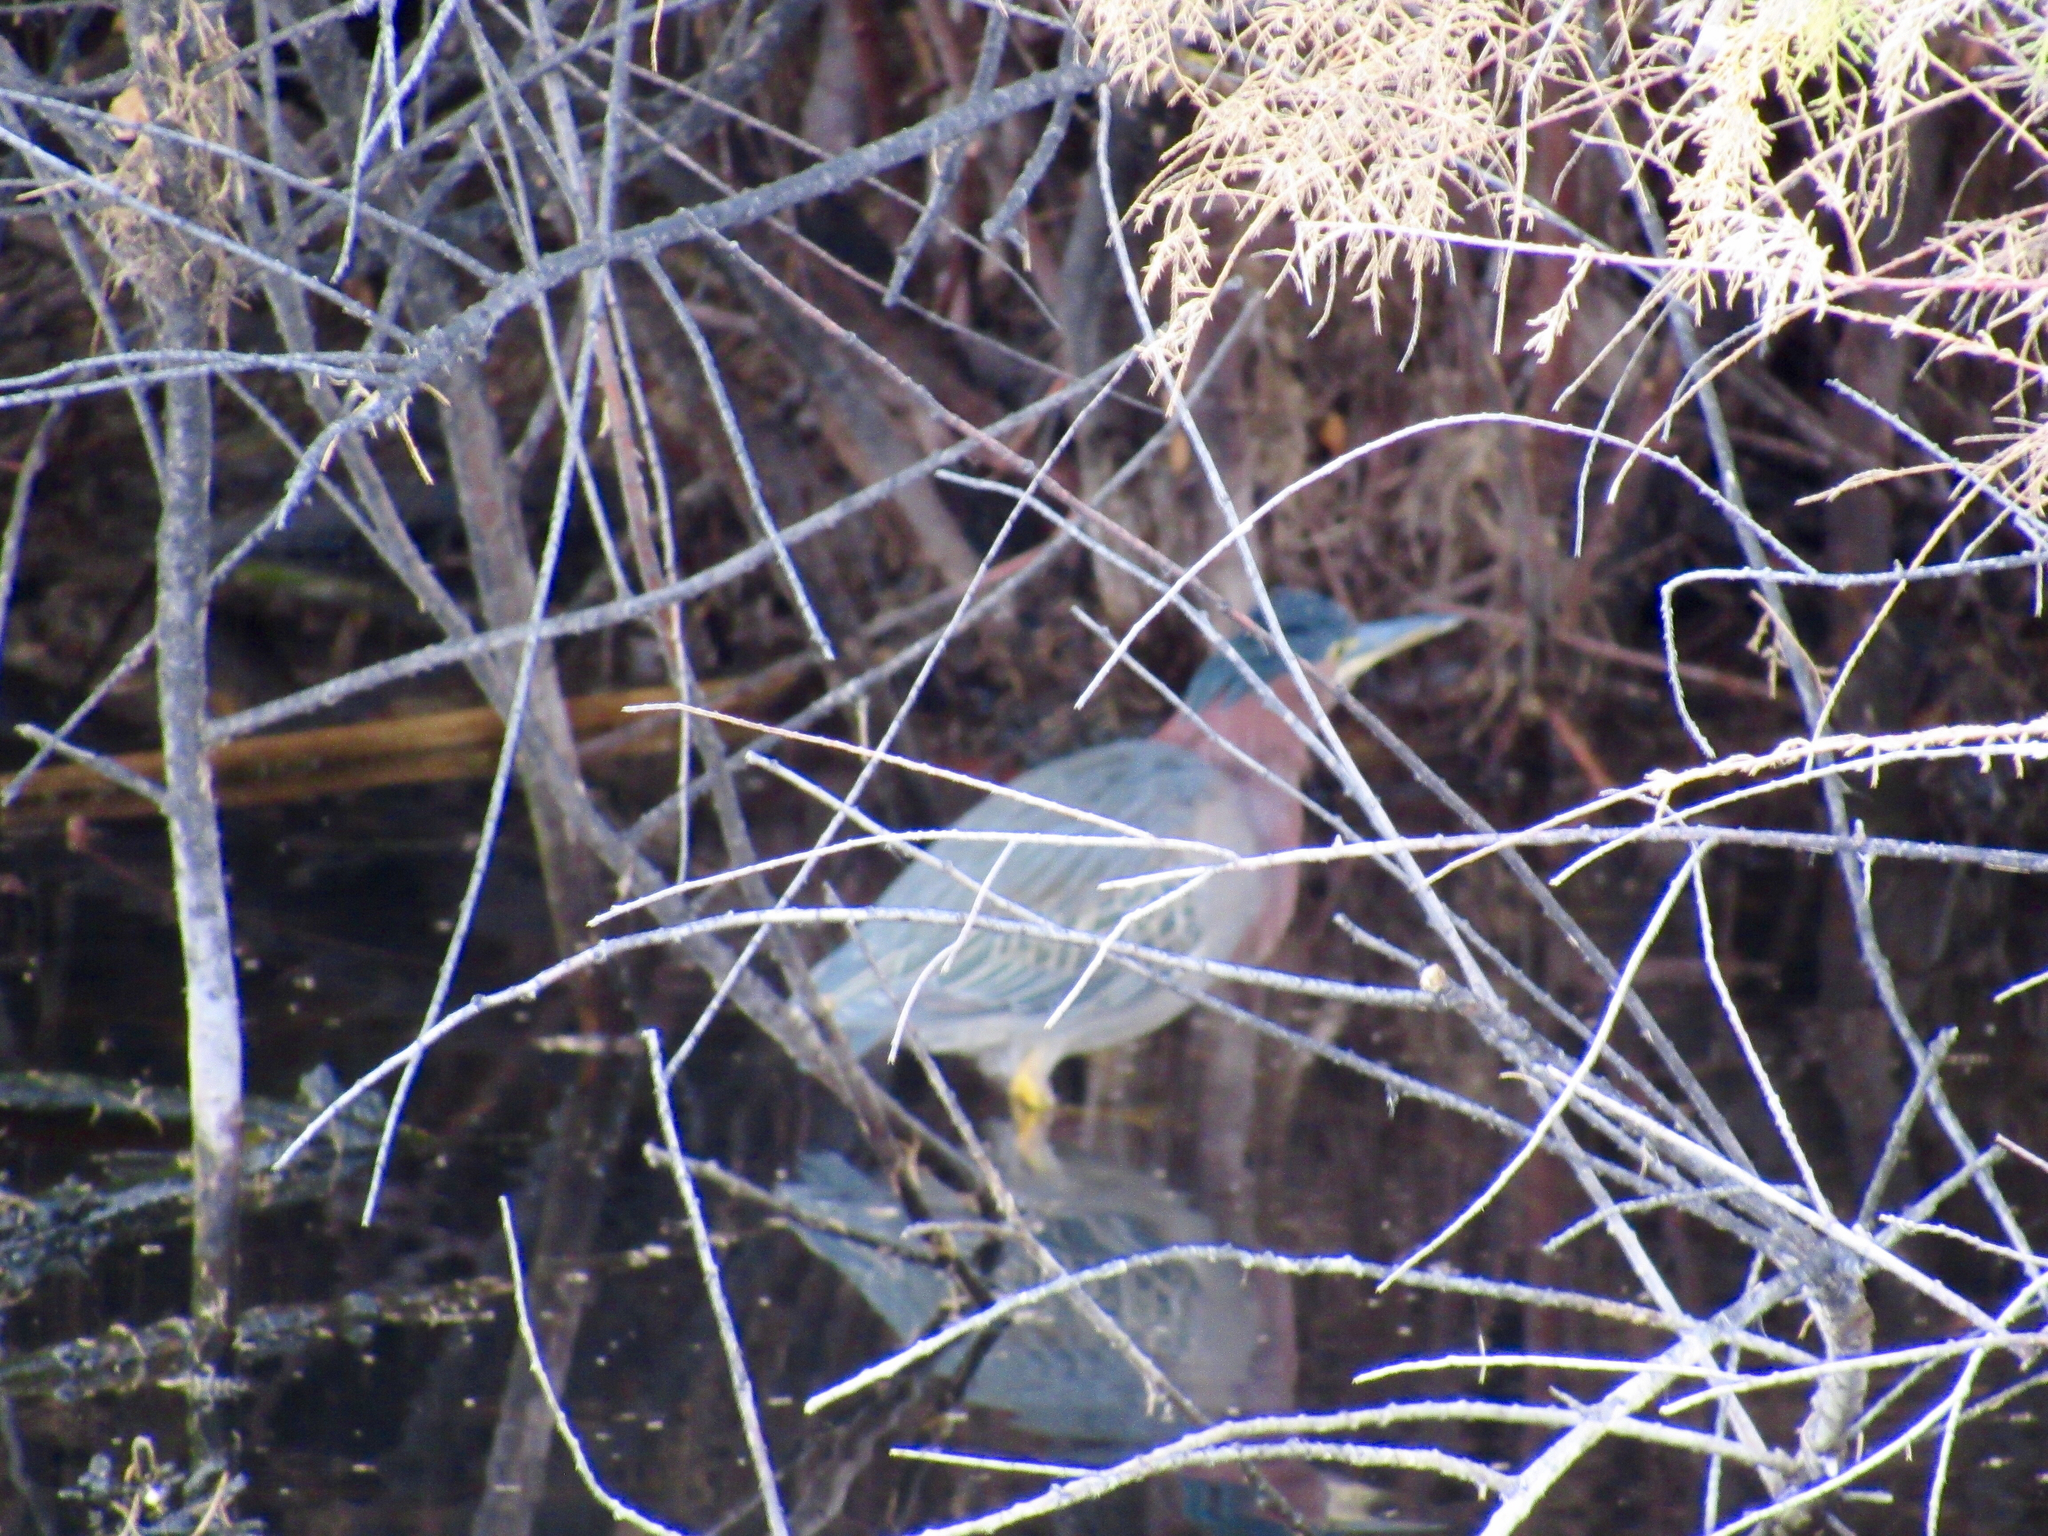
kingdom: Animalia
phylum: Chordata
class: Aves
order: Pelecaniformes
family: Ardeidae
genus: Butorides
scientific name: Butorides virescens
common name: Green heron
